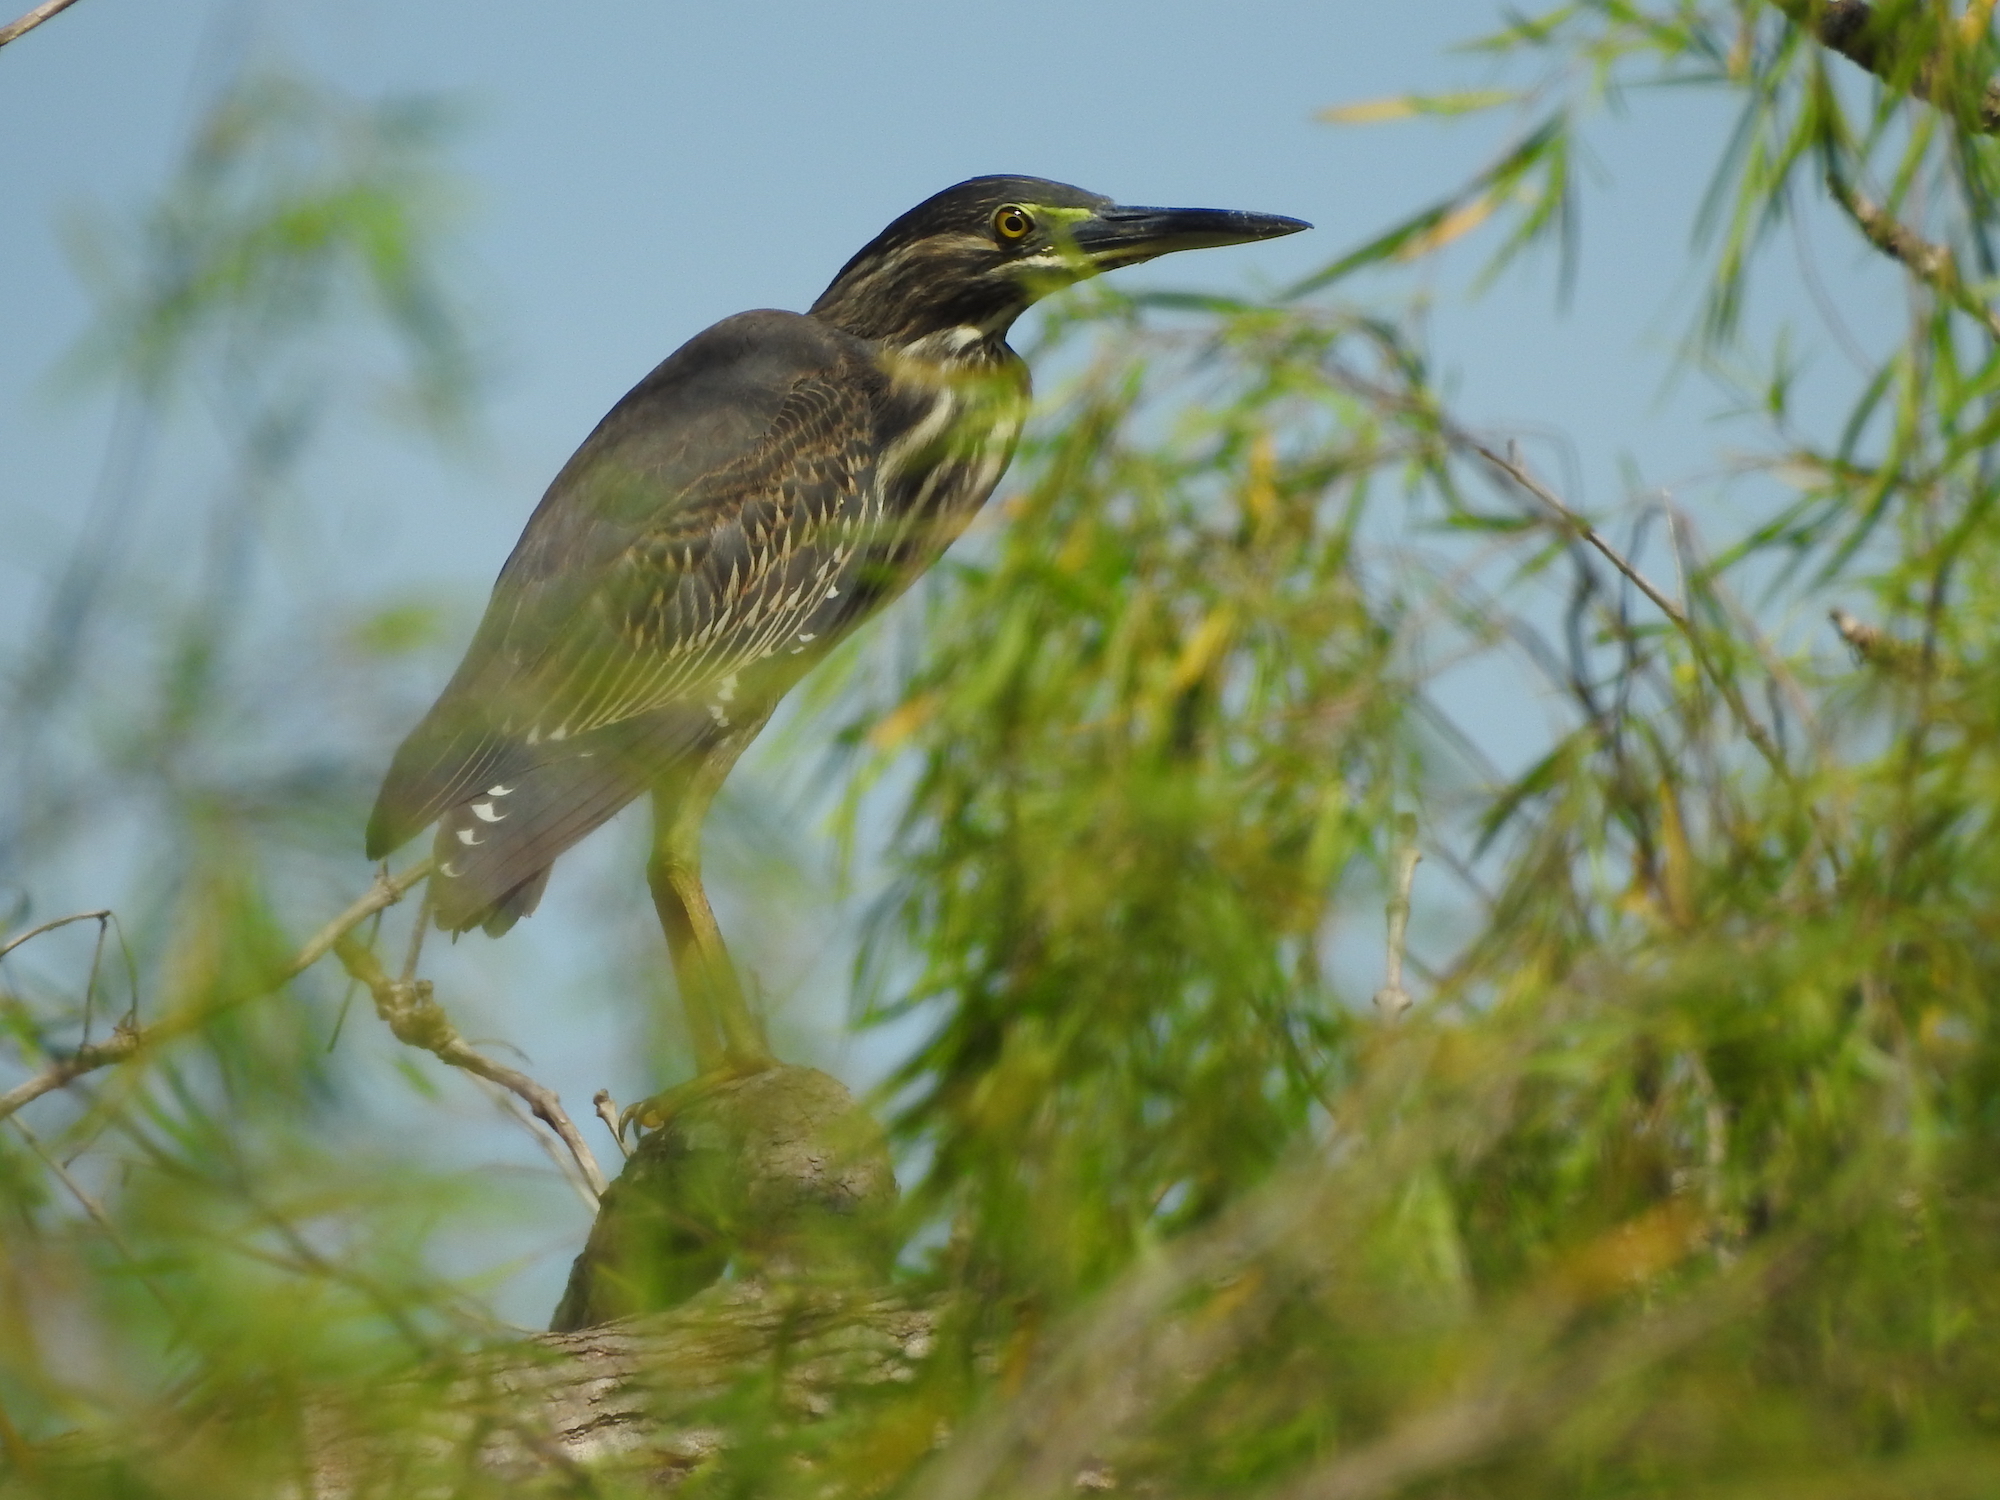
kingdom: Animalia
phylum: Chordata
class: Aves
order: Pelecaniformes
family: Ardeidae
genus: Butorides
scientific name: Butorides striata
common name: Striated heron
